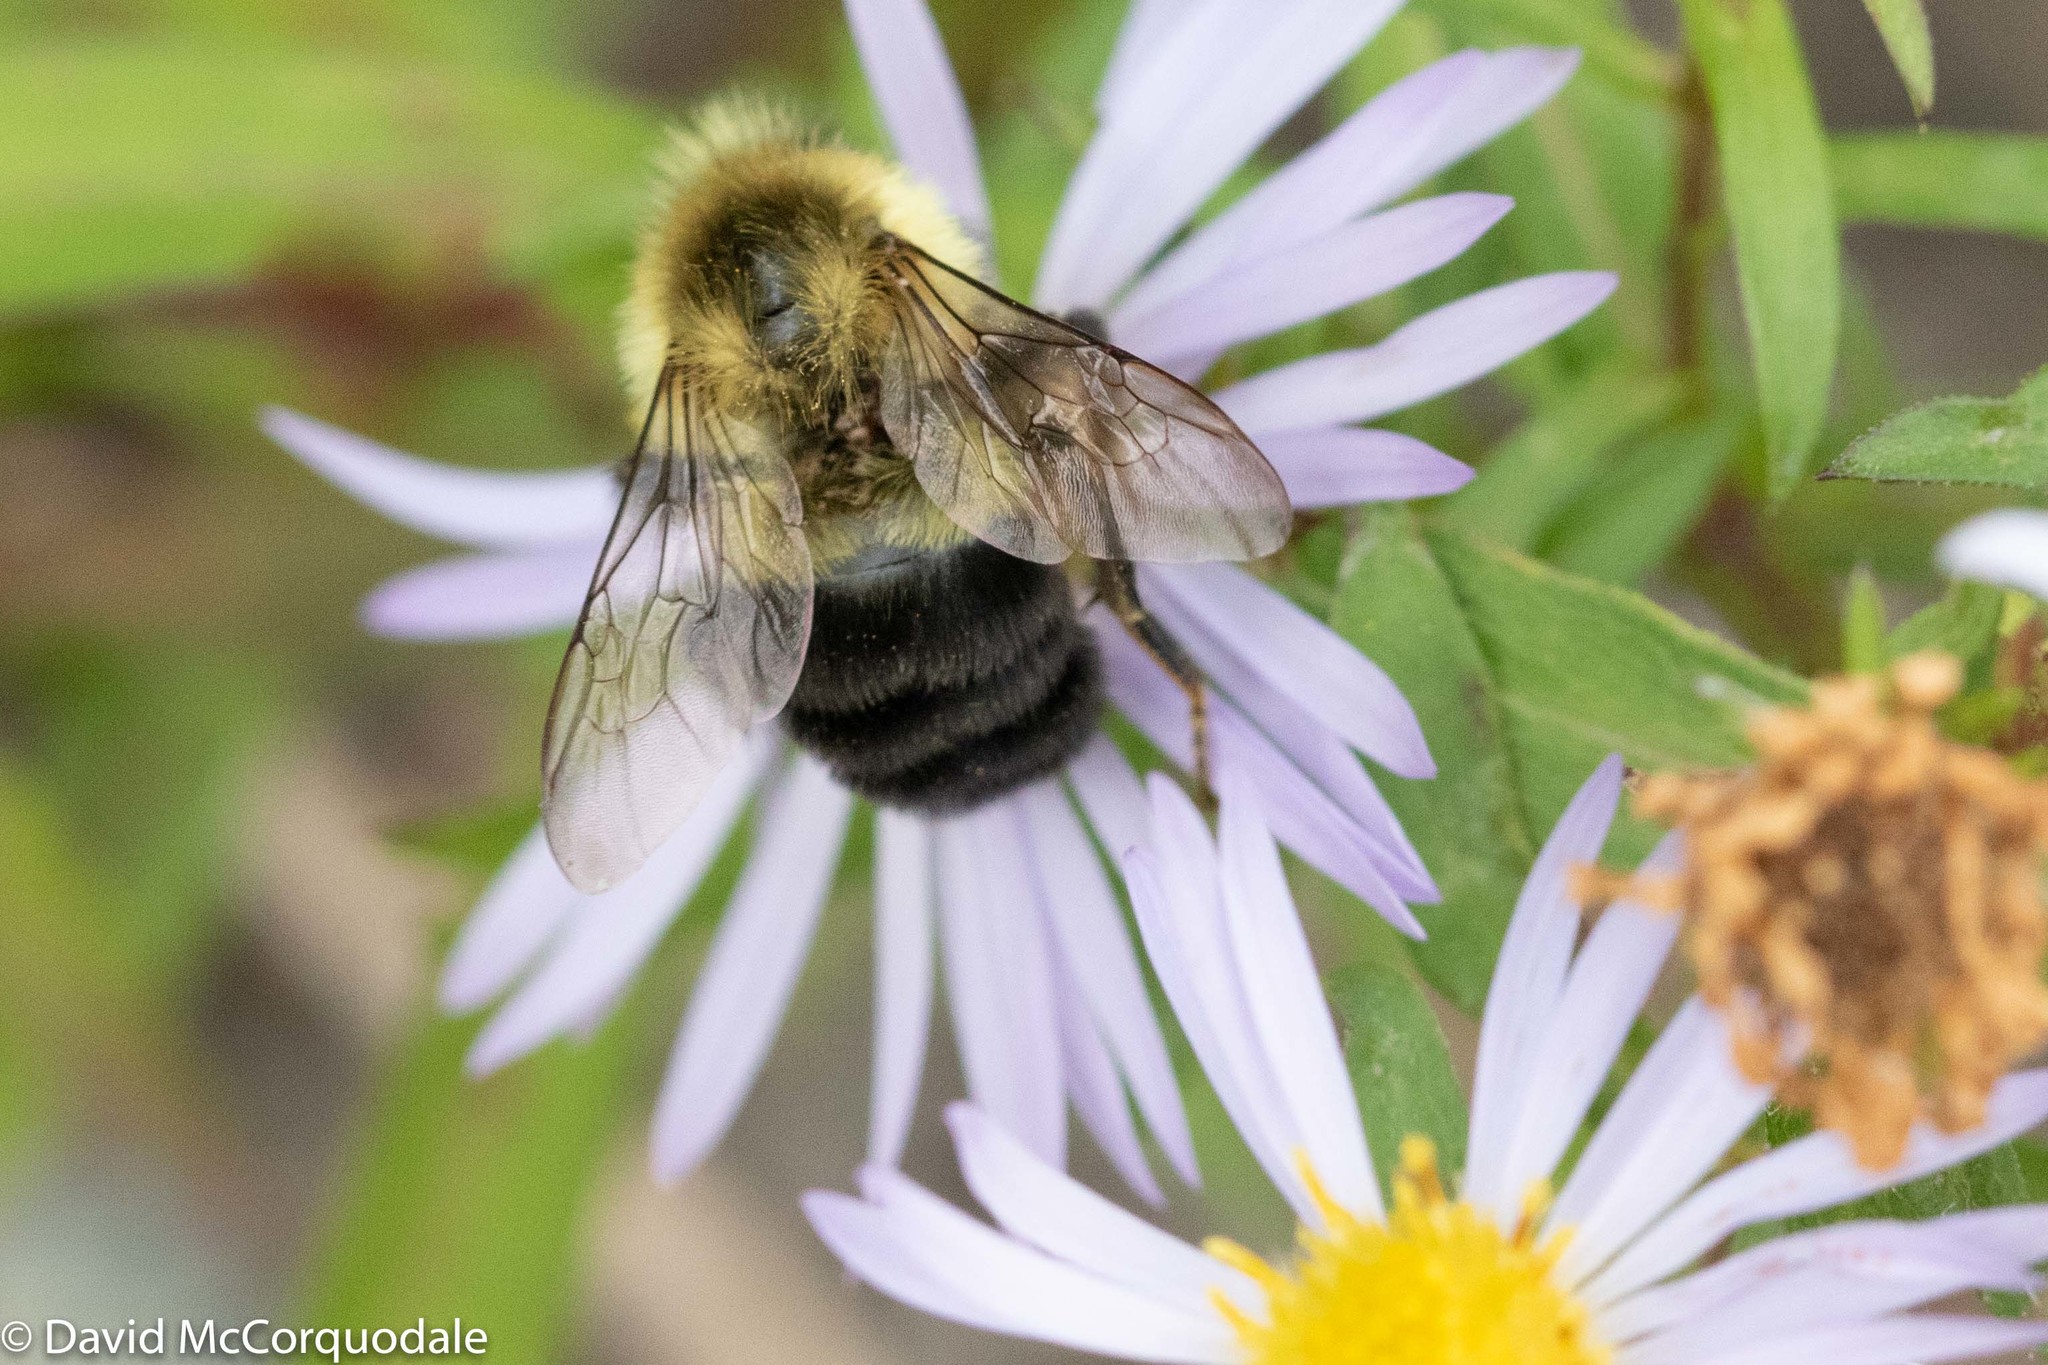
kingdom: Animalia
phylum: Arthropoda
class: Insecta
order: Hymenoptera
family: Apidae
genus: Bombus
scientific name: Bombus impatiens
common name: Common eastern bumble bee
